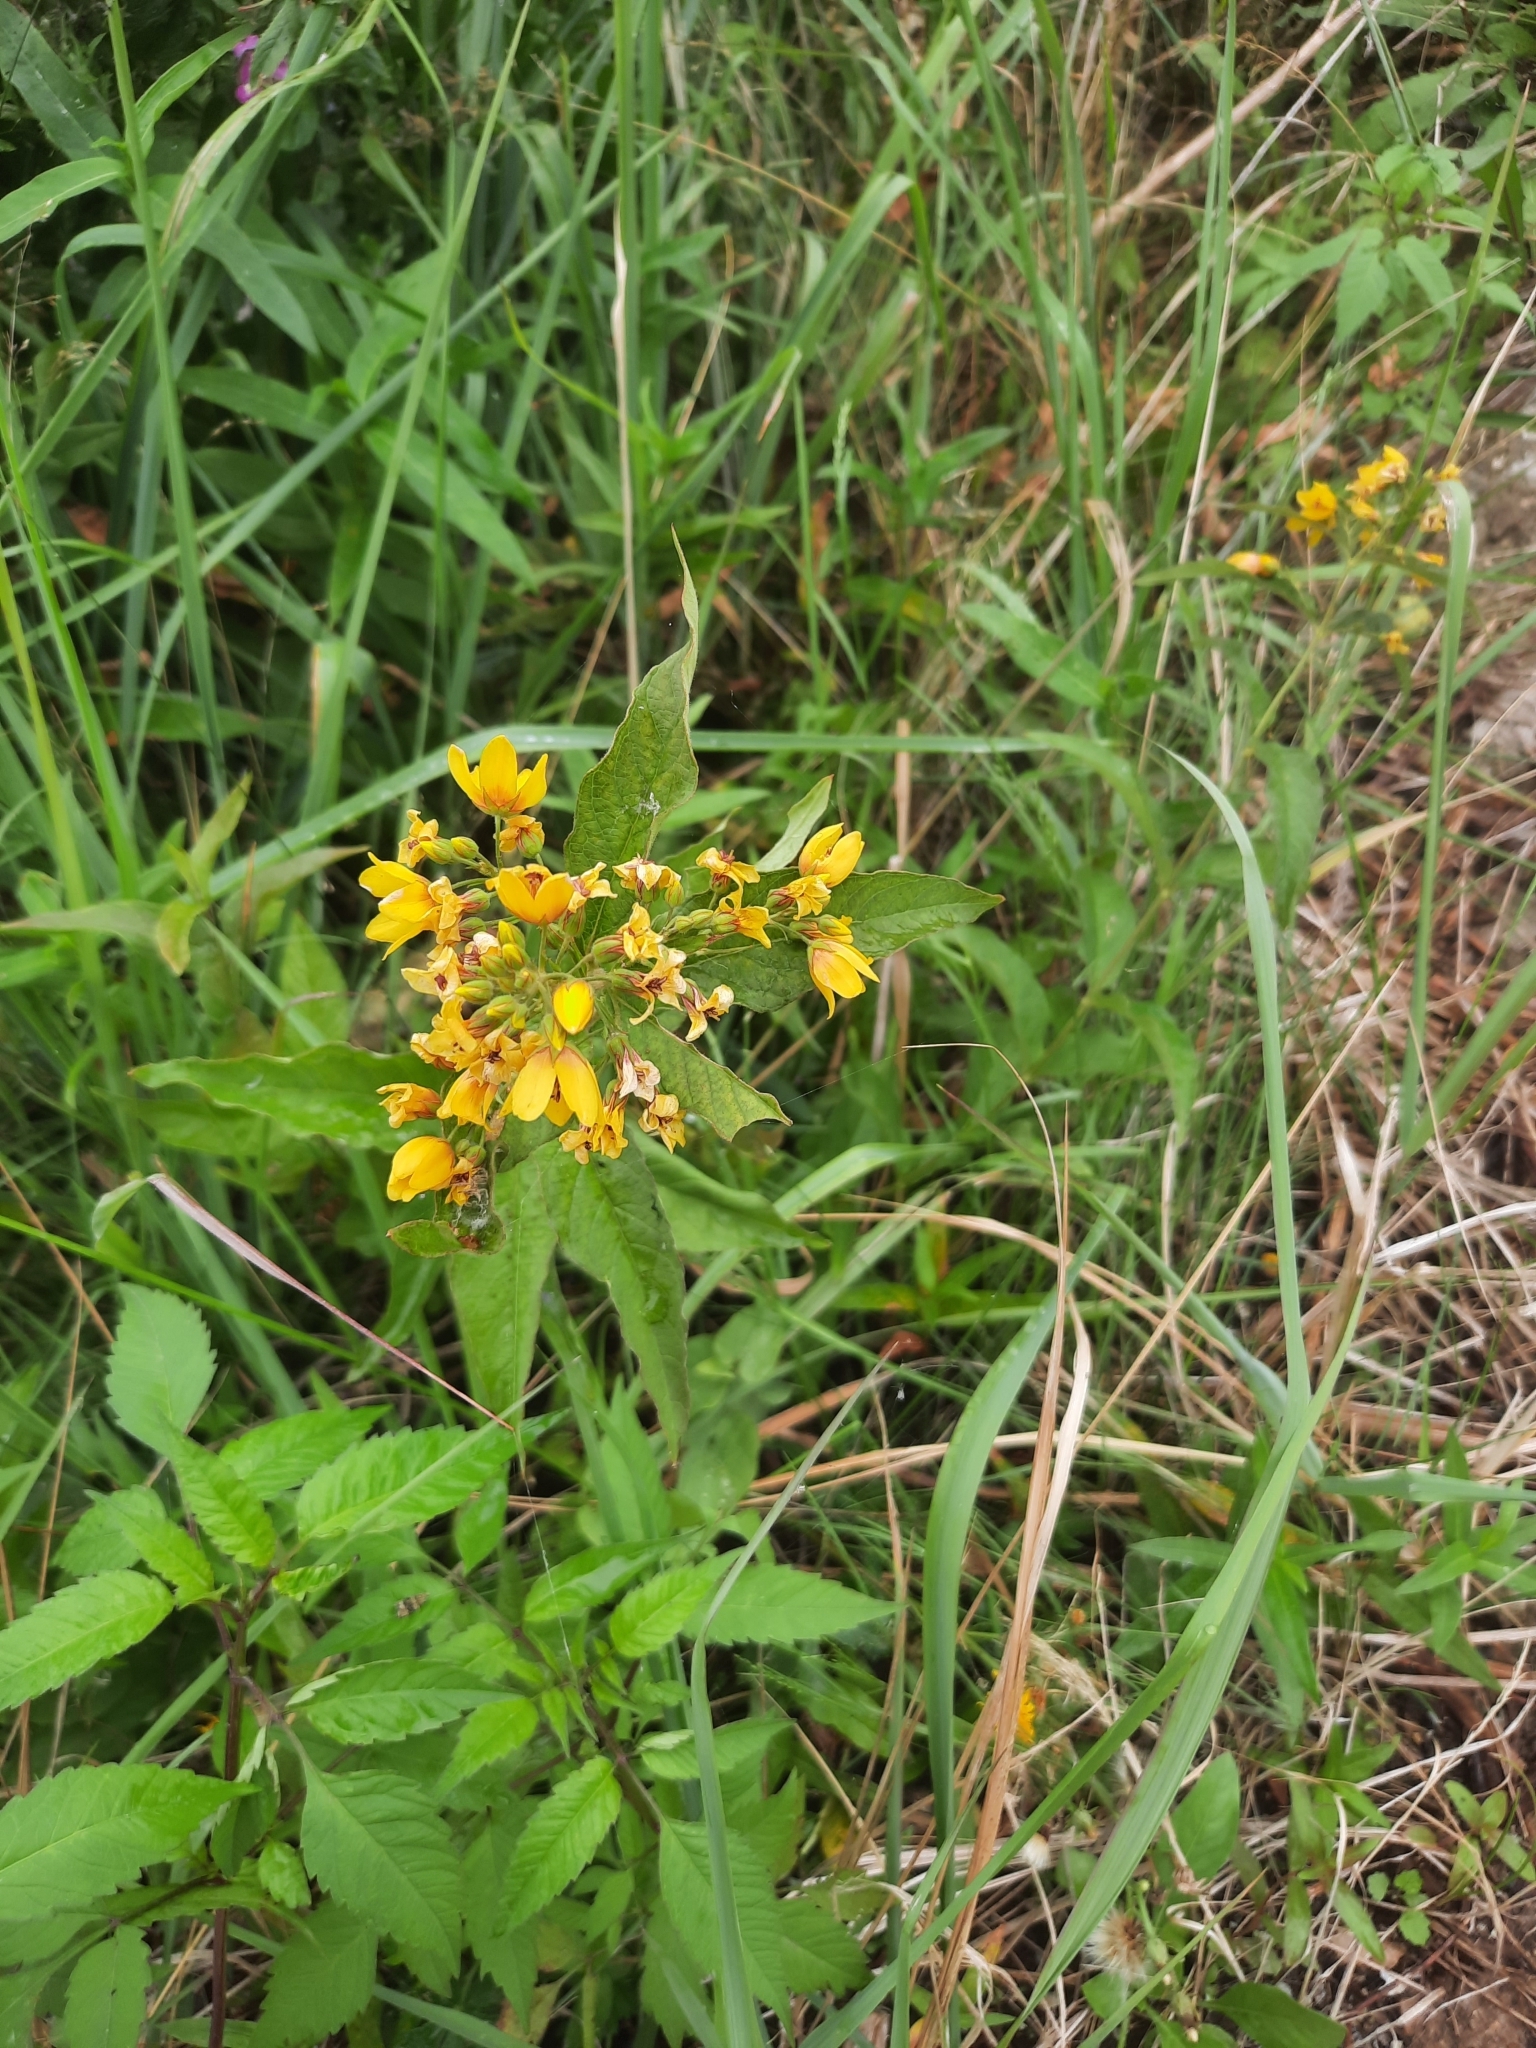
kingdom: Plantae
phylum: Tracheophyta
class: Magnoliopsida
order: Ericales
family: Primulaceae
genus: Lysimachia
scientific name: Lysimachia vulgaris
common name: Yellow loosestrife
